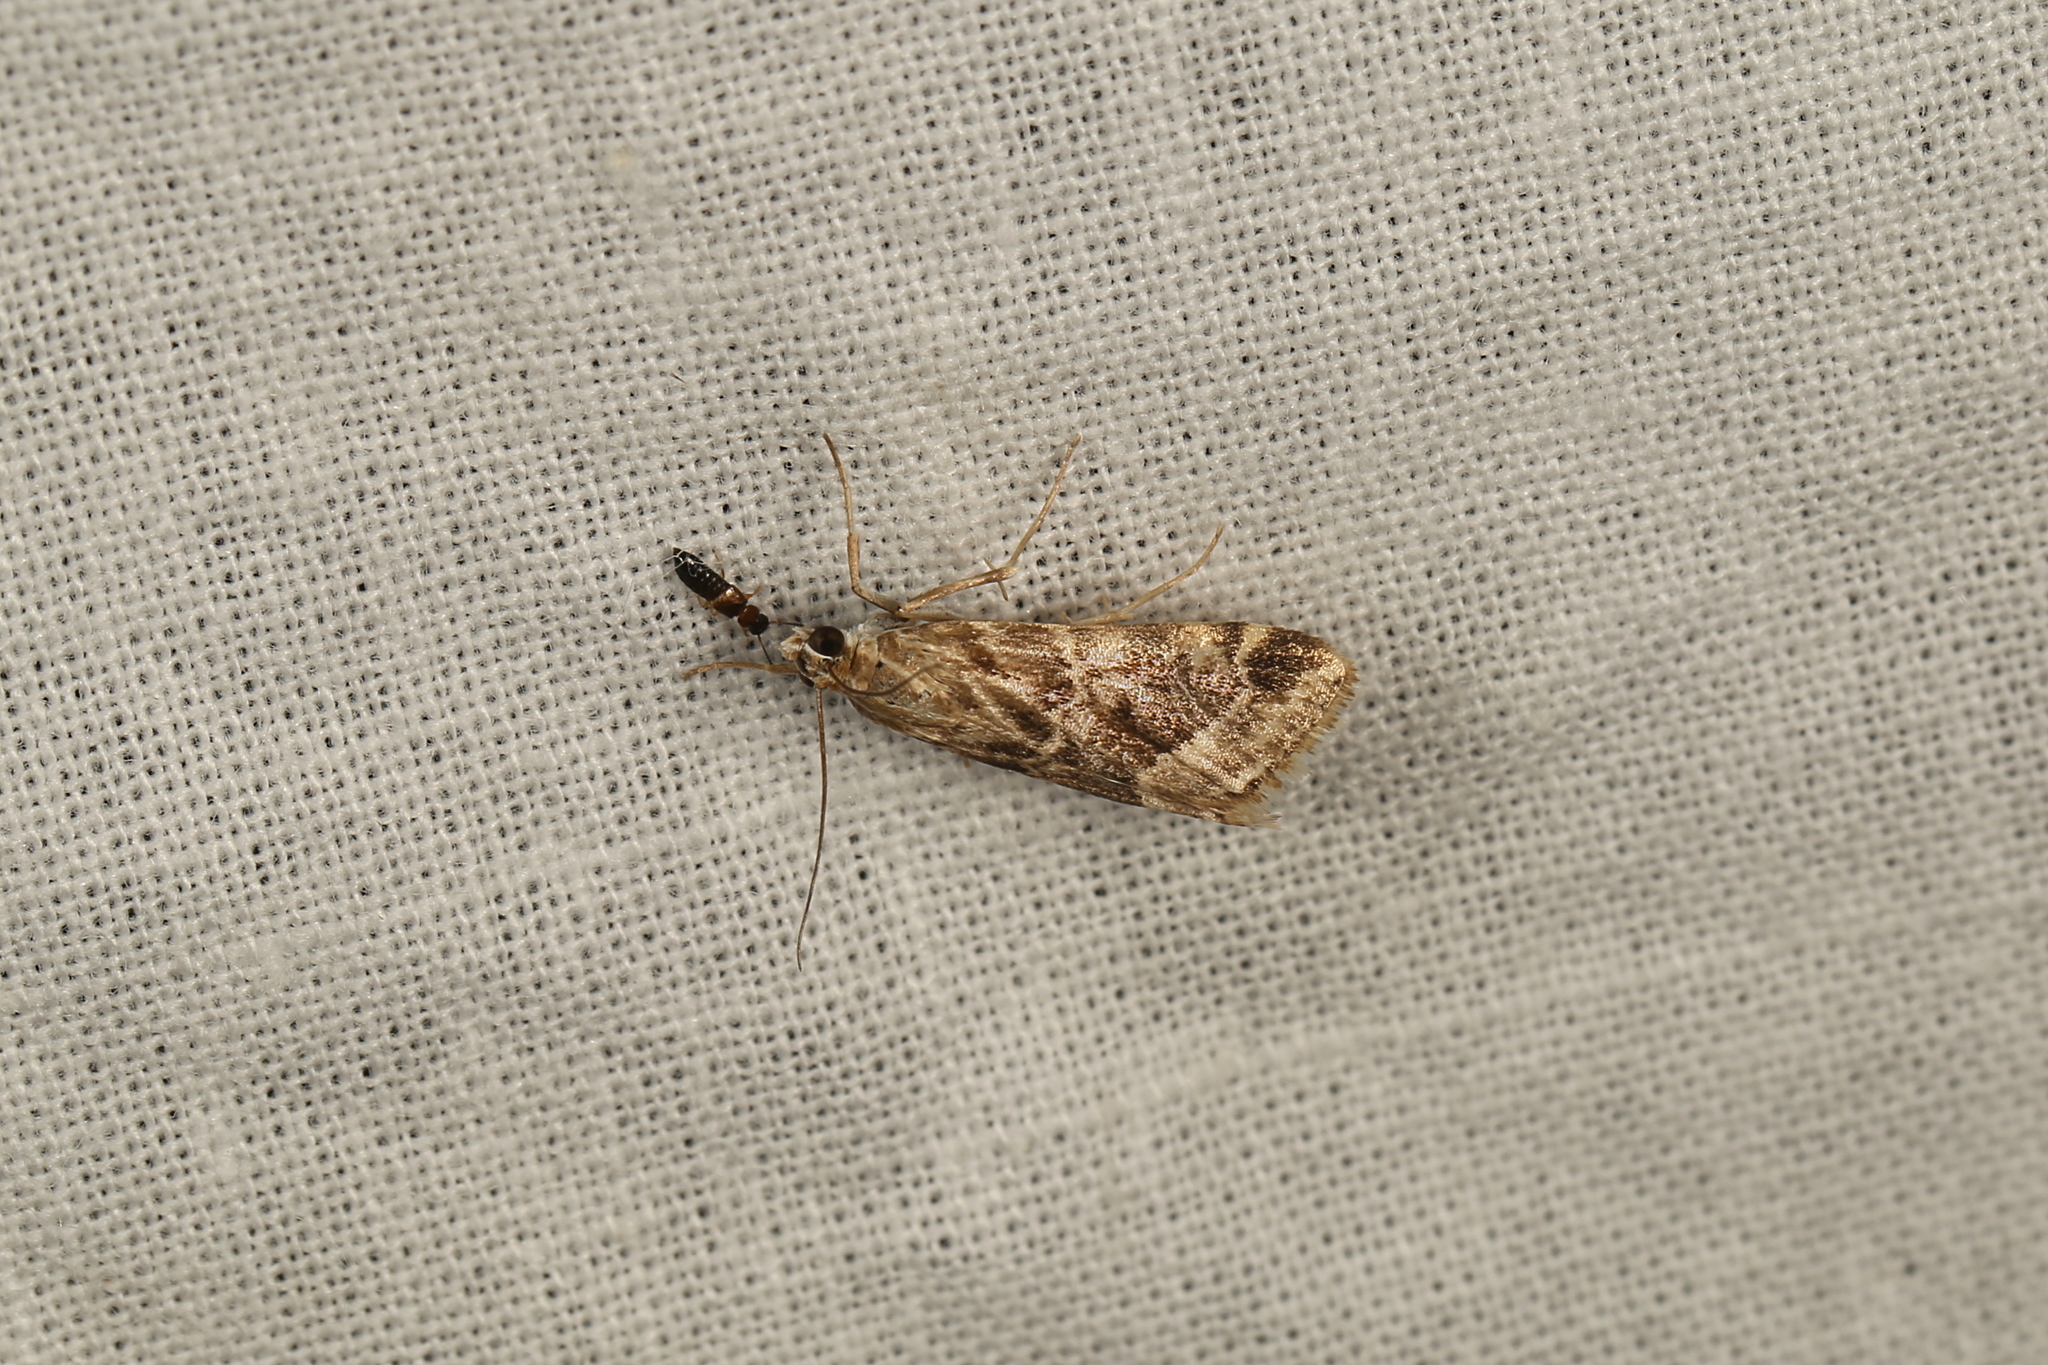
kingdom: Animalia
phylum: Arthropoda
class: Insecta
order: Lepidoptera
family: Crambidae
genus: Hellula
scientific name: Hellula hydralis
